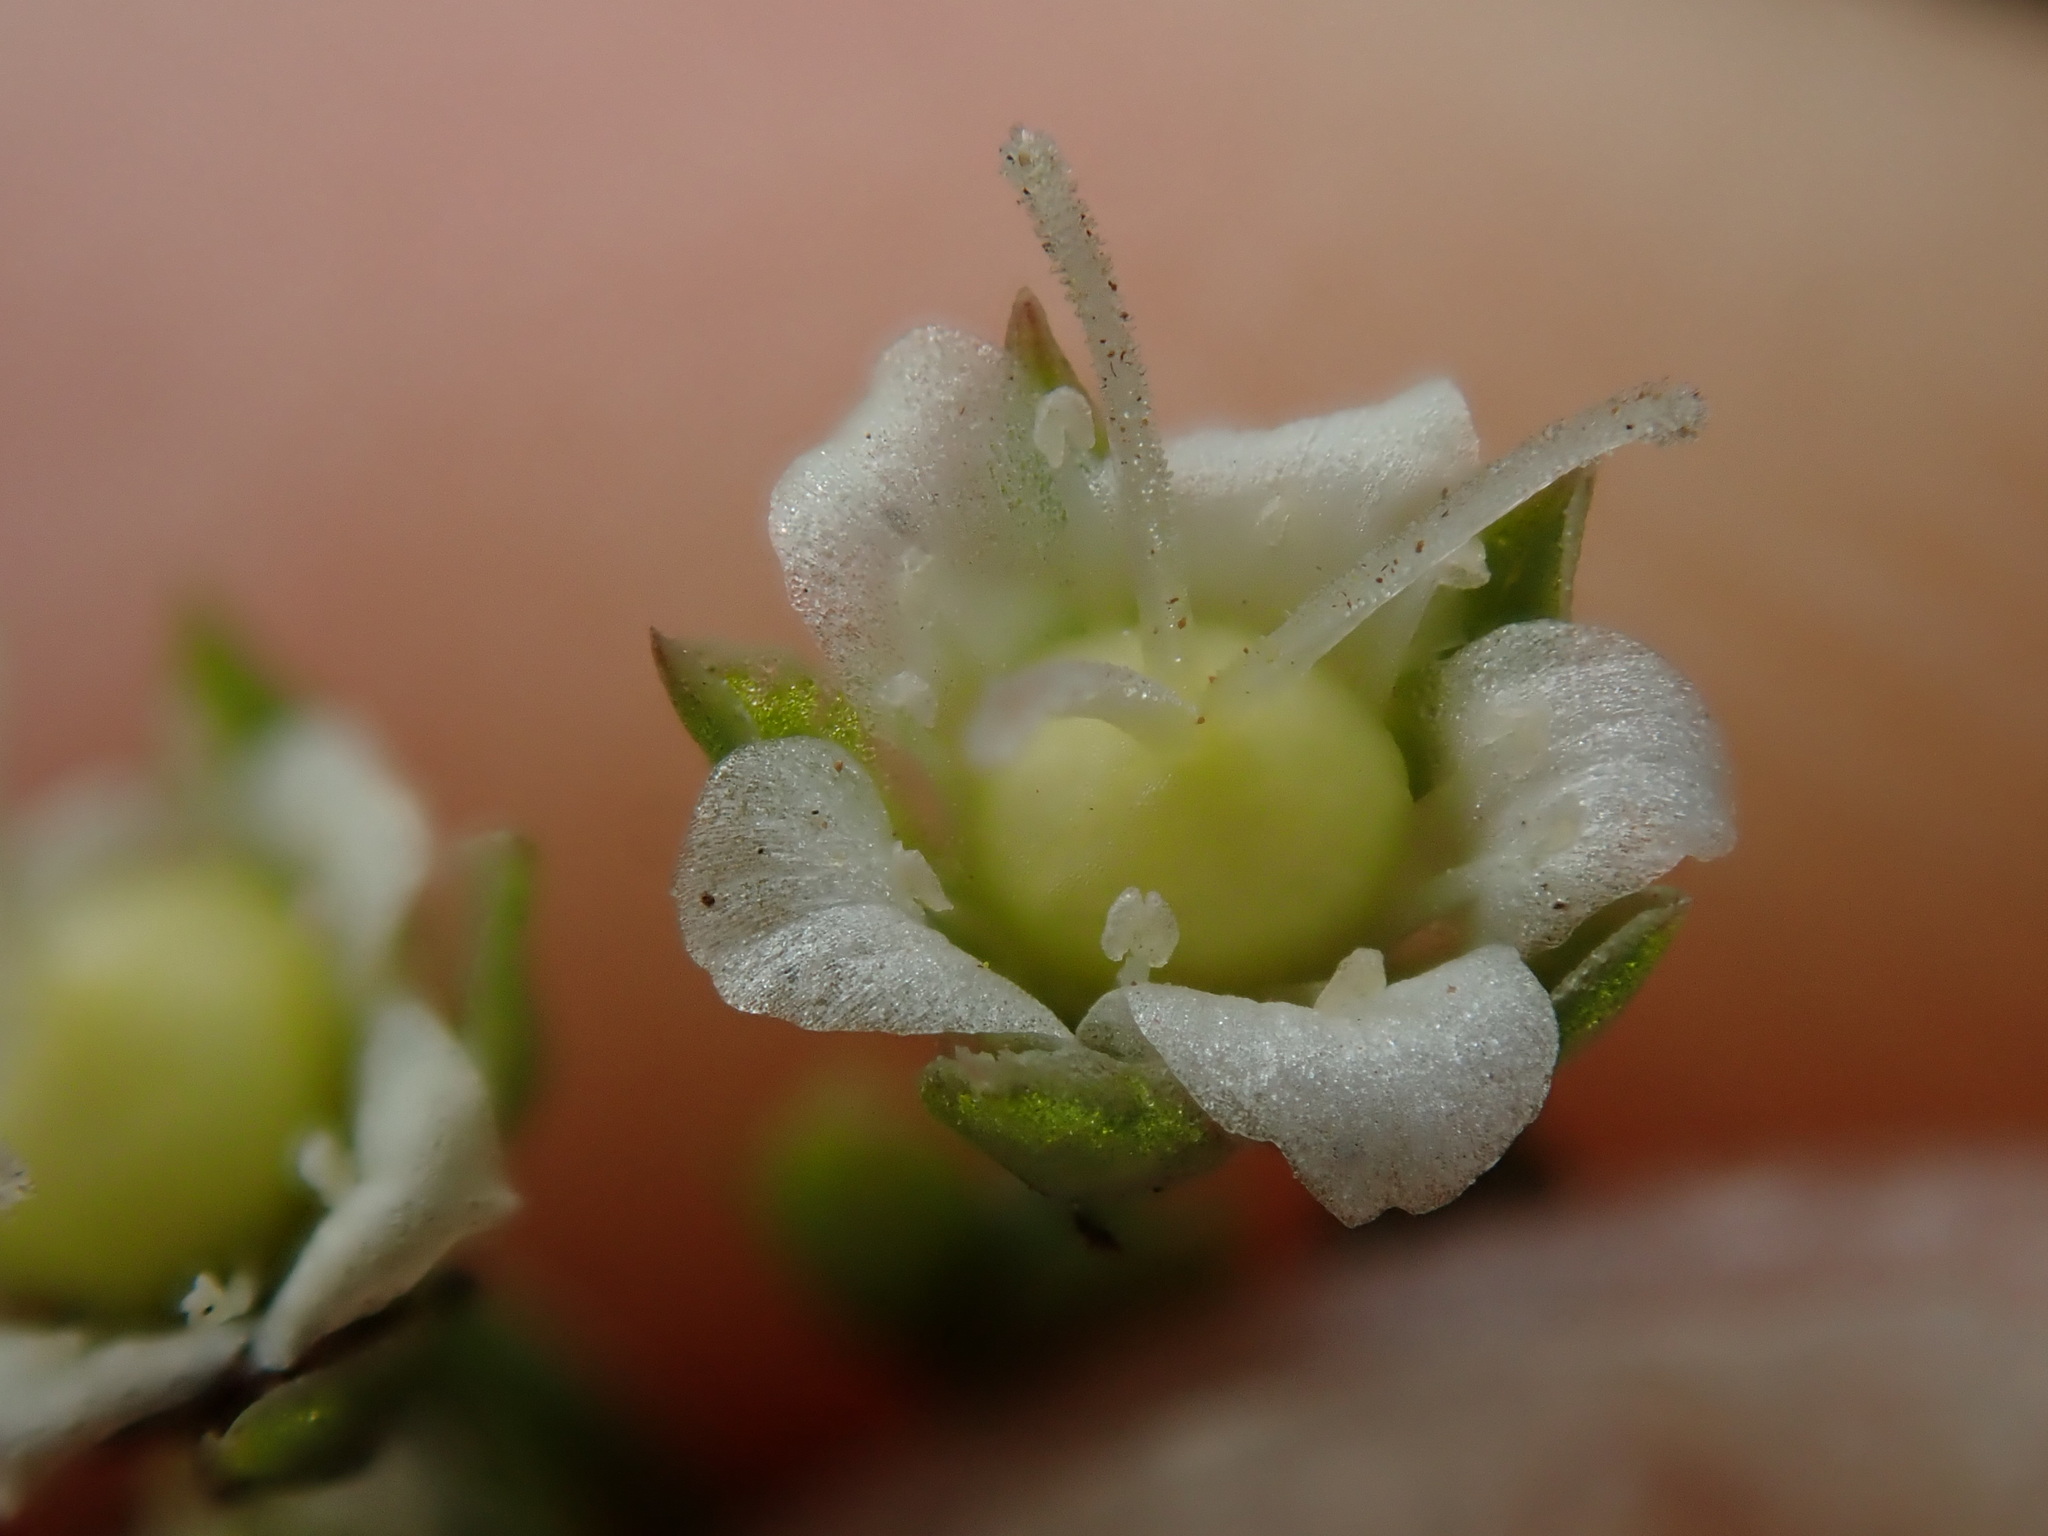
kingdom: Plantae
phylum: Tracheophyta
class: Magnoliopsida
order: Caryophyllales
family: Caryophyllaceae
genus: Moehringia
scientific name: Moehringia macrophylla
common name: Big-leaf sandwort
